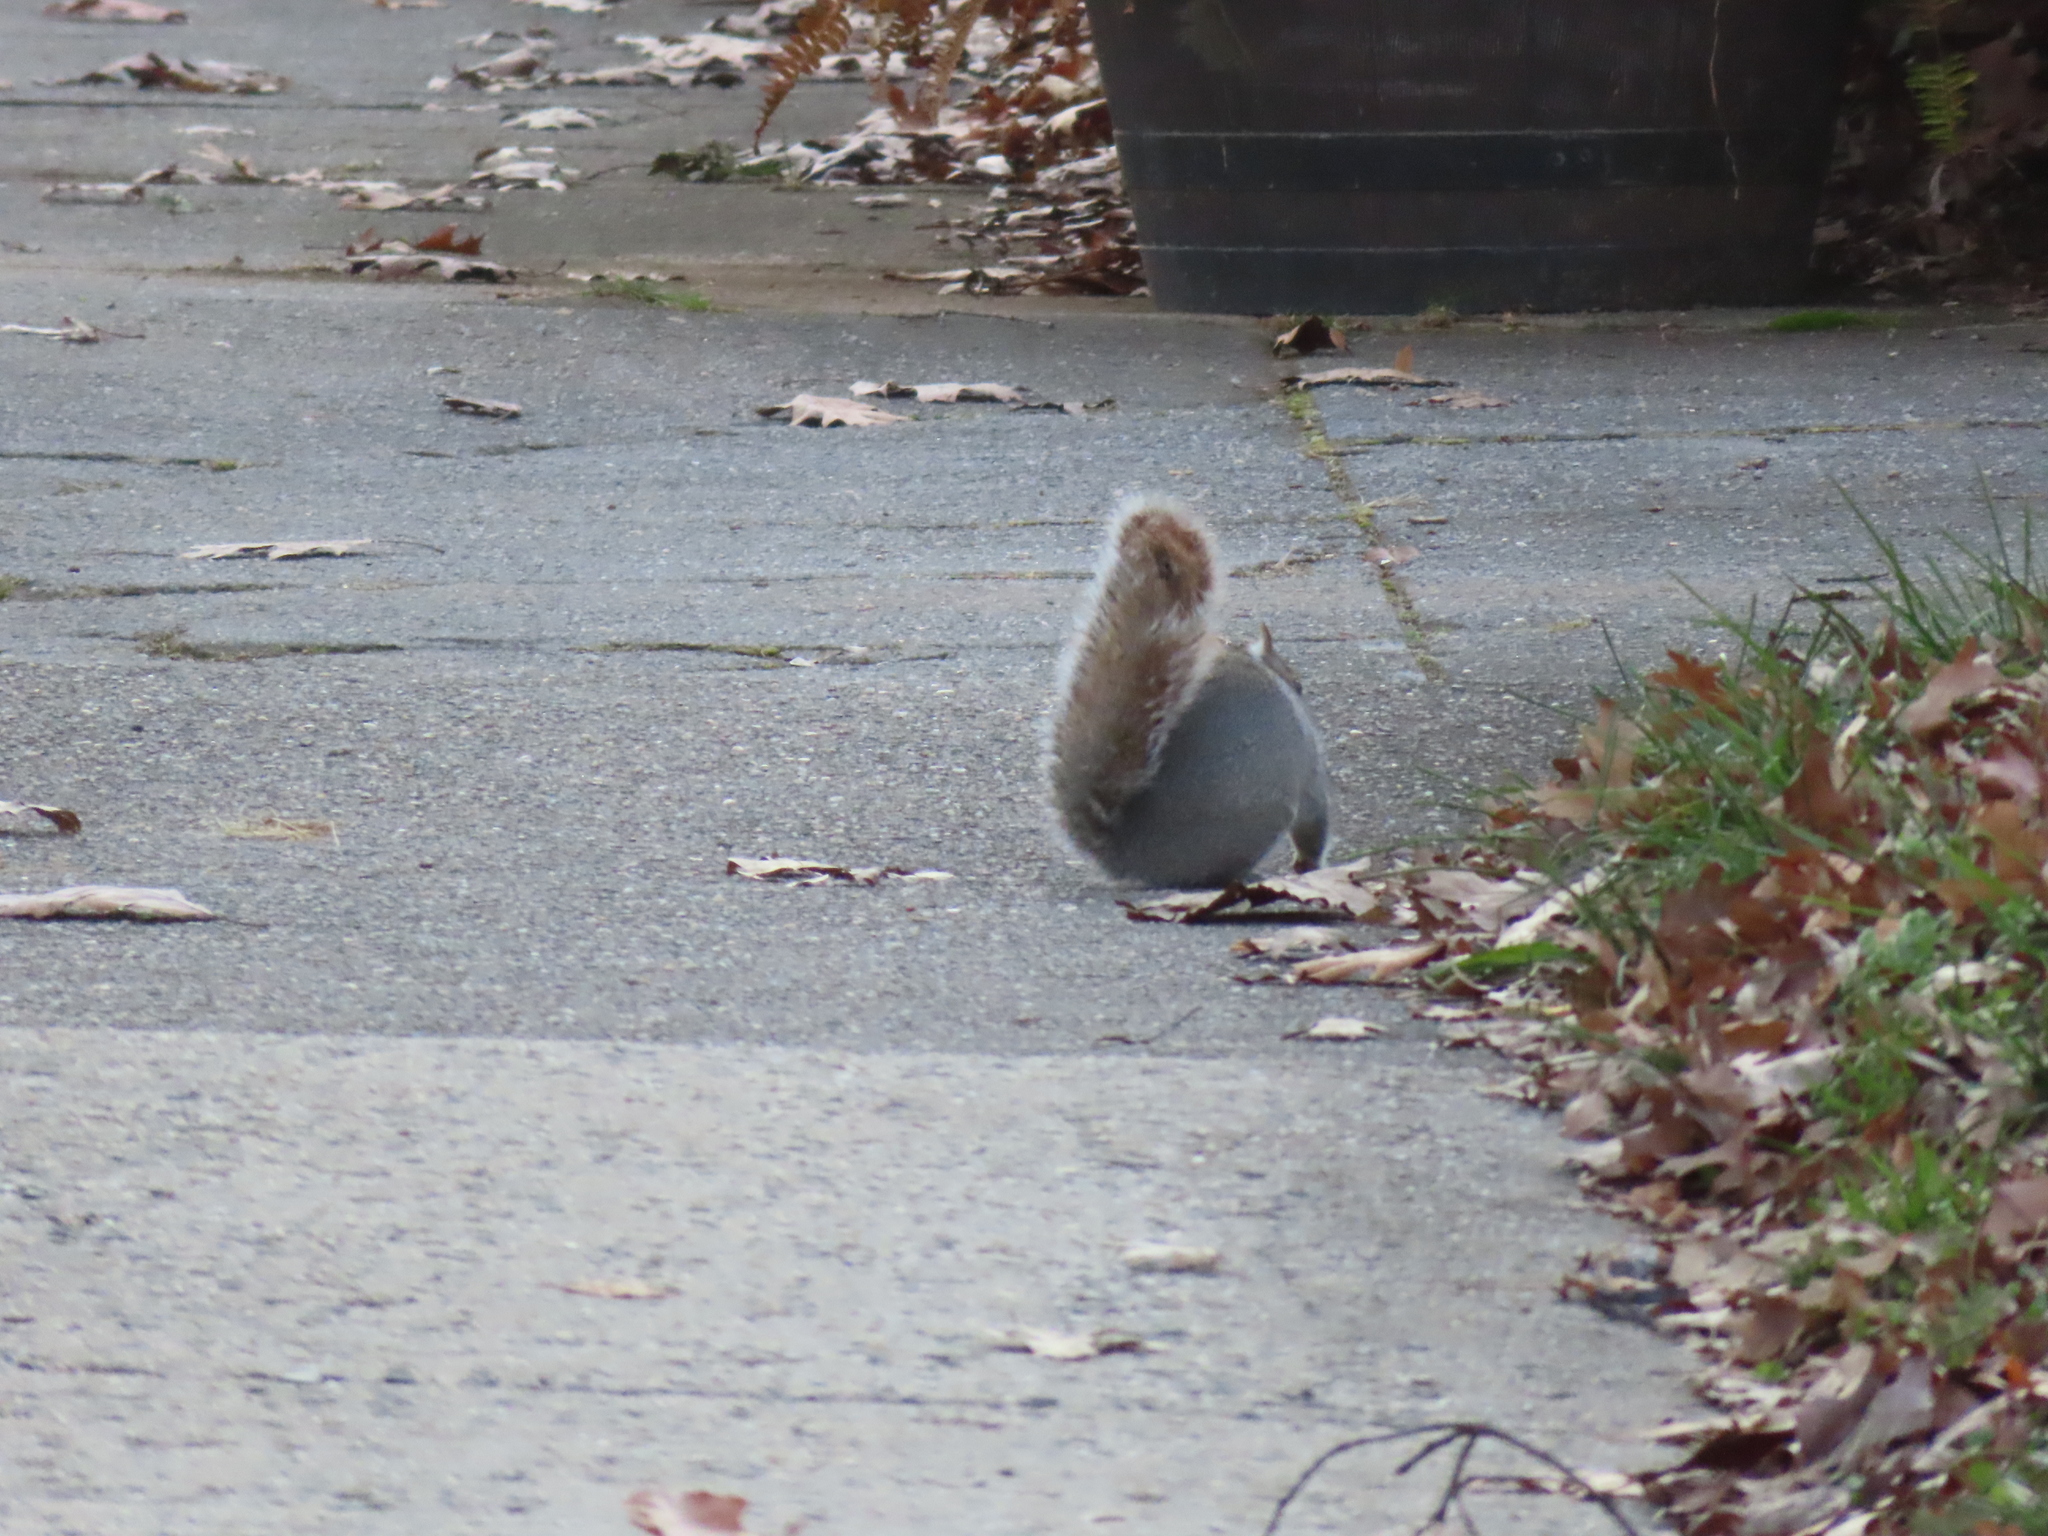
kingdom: Animalia
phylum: Chordata
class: Mammalia
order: Rodentia
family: Sciuridae
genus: Sciurus
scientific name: Sciurus carolinensis
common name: Eastern gray squirrel
